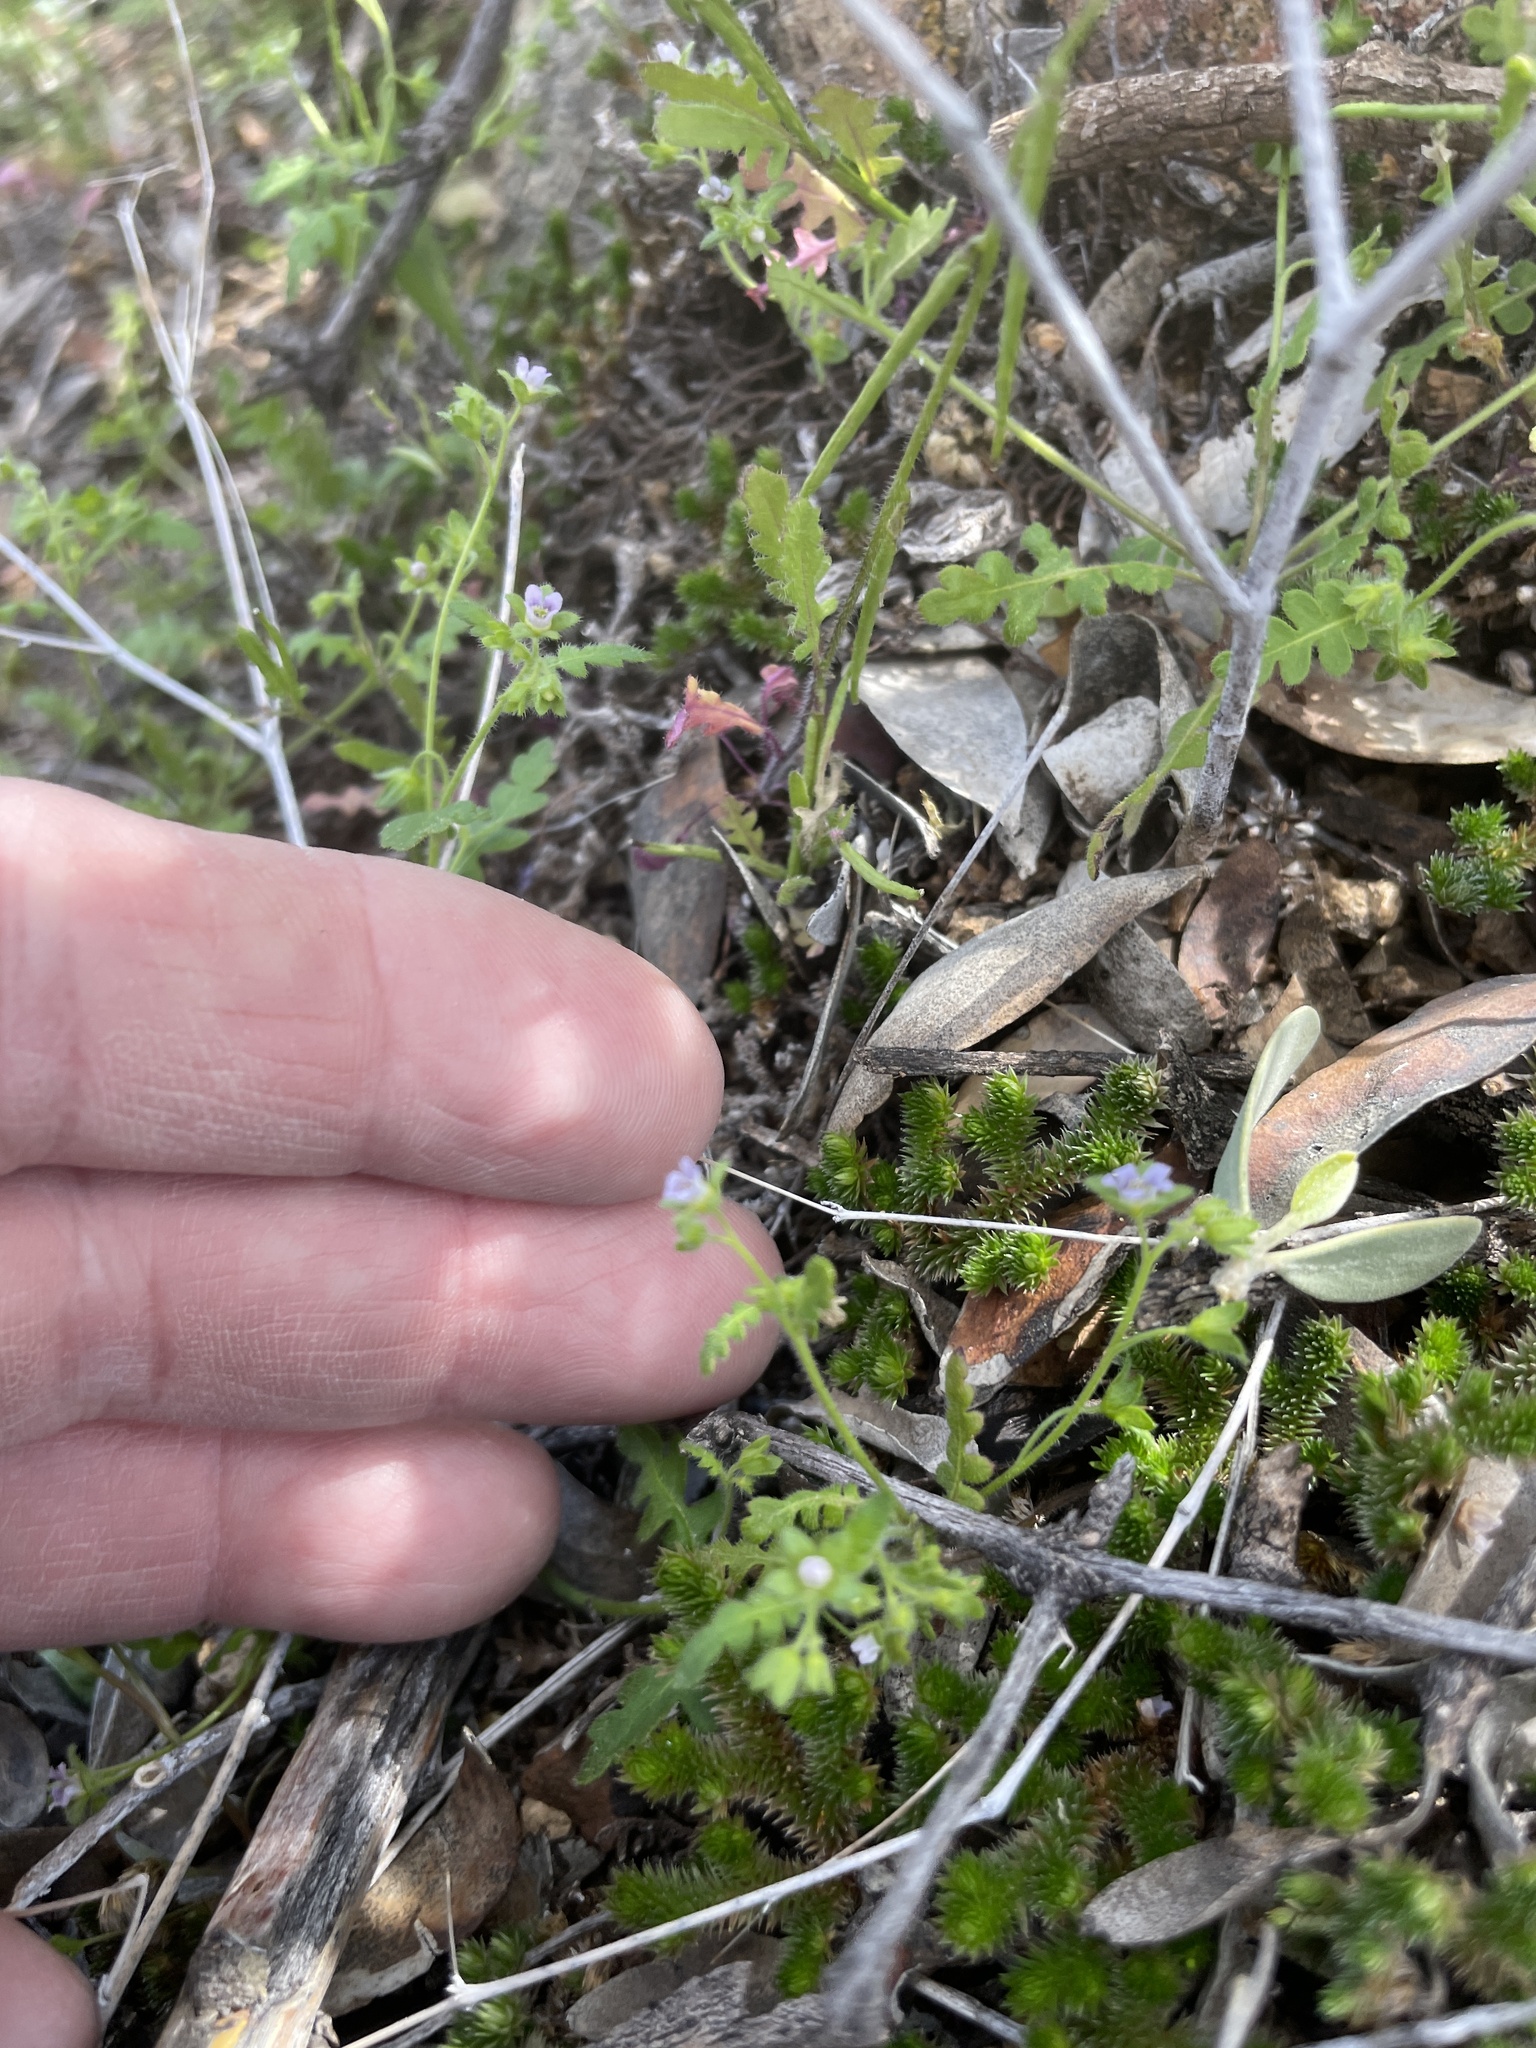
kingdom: Plantae
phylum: Tracheophyta
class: Magnoliopsida
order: Boraginales
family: Hydrophyllaceae
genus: Eucrypta
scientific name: Eucrypta chrysanthemifolia
